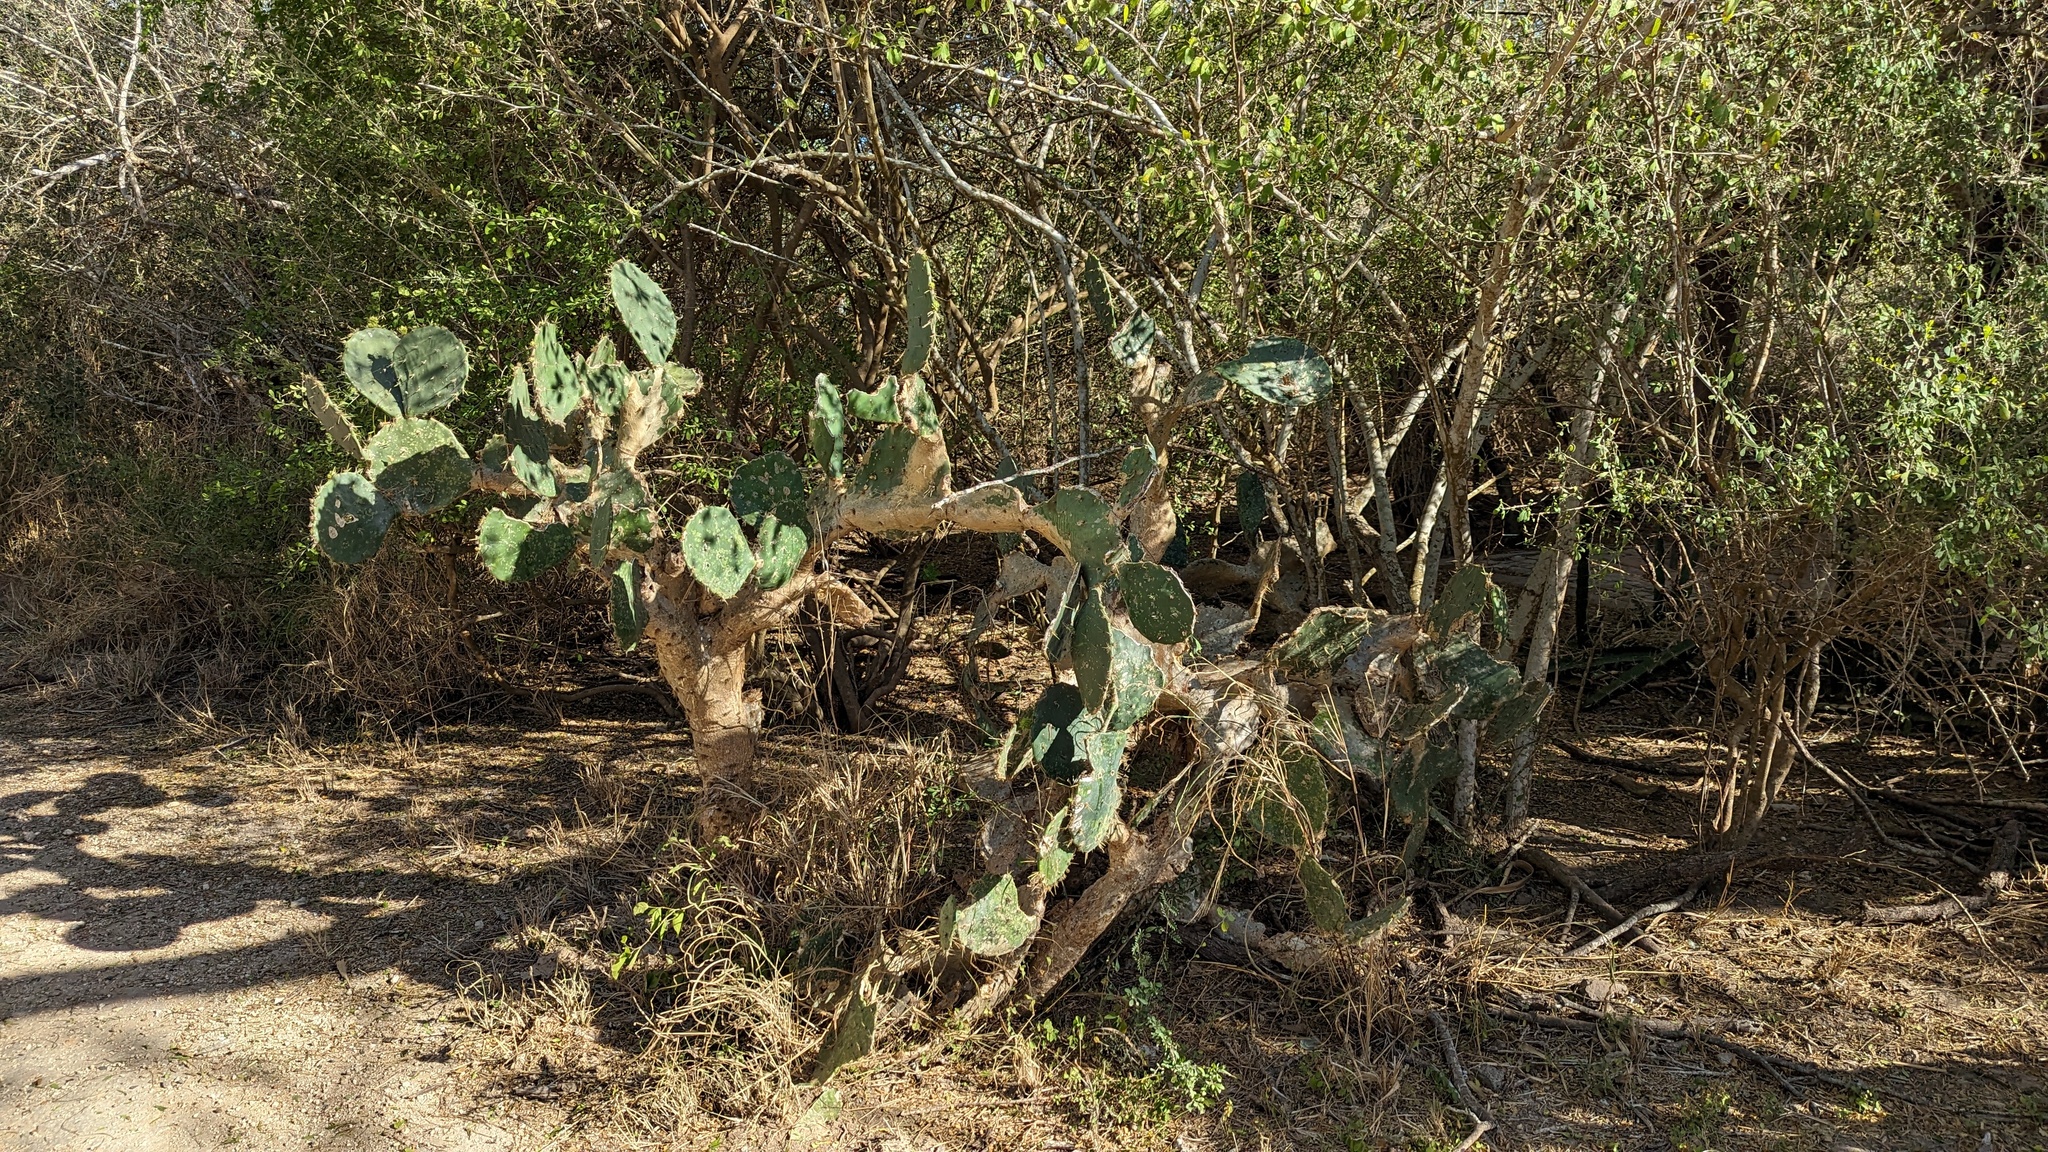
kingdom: Plantae
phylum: Tracheophyta
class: Magnoliopsida
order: Caryophyllales
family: Cactaceae
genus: Opuntia
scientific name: Opuntia alta
